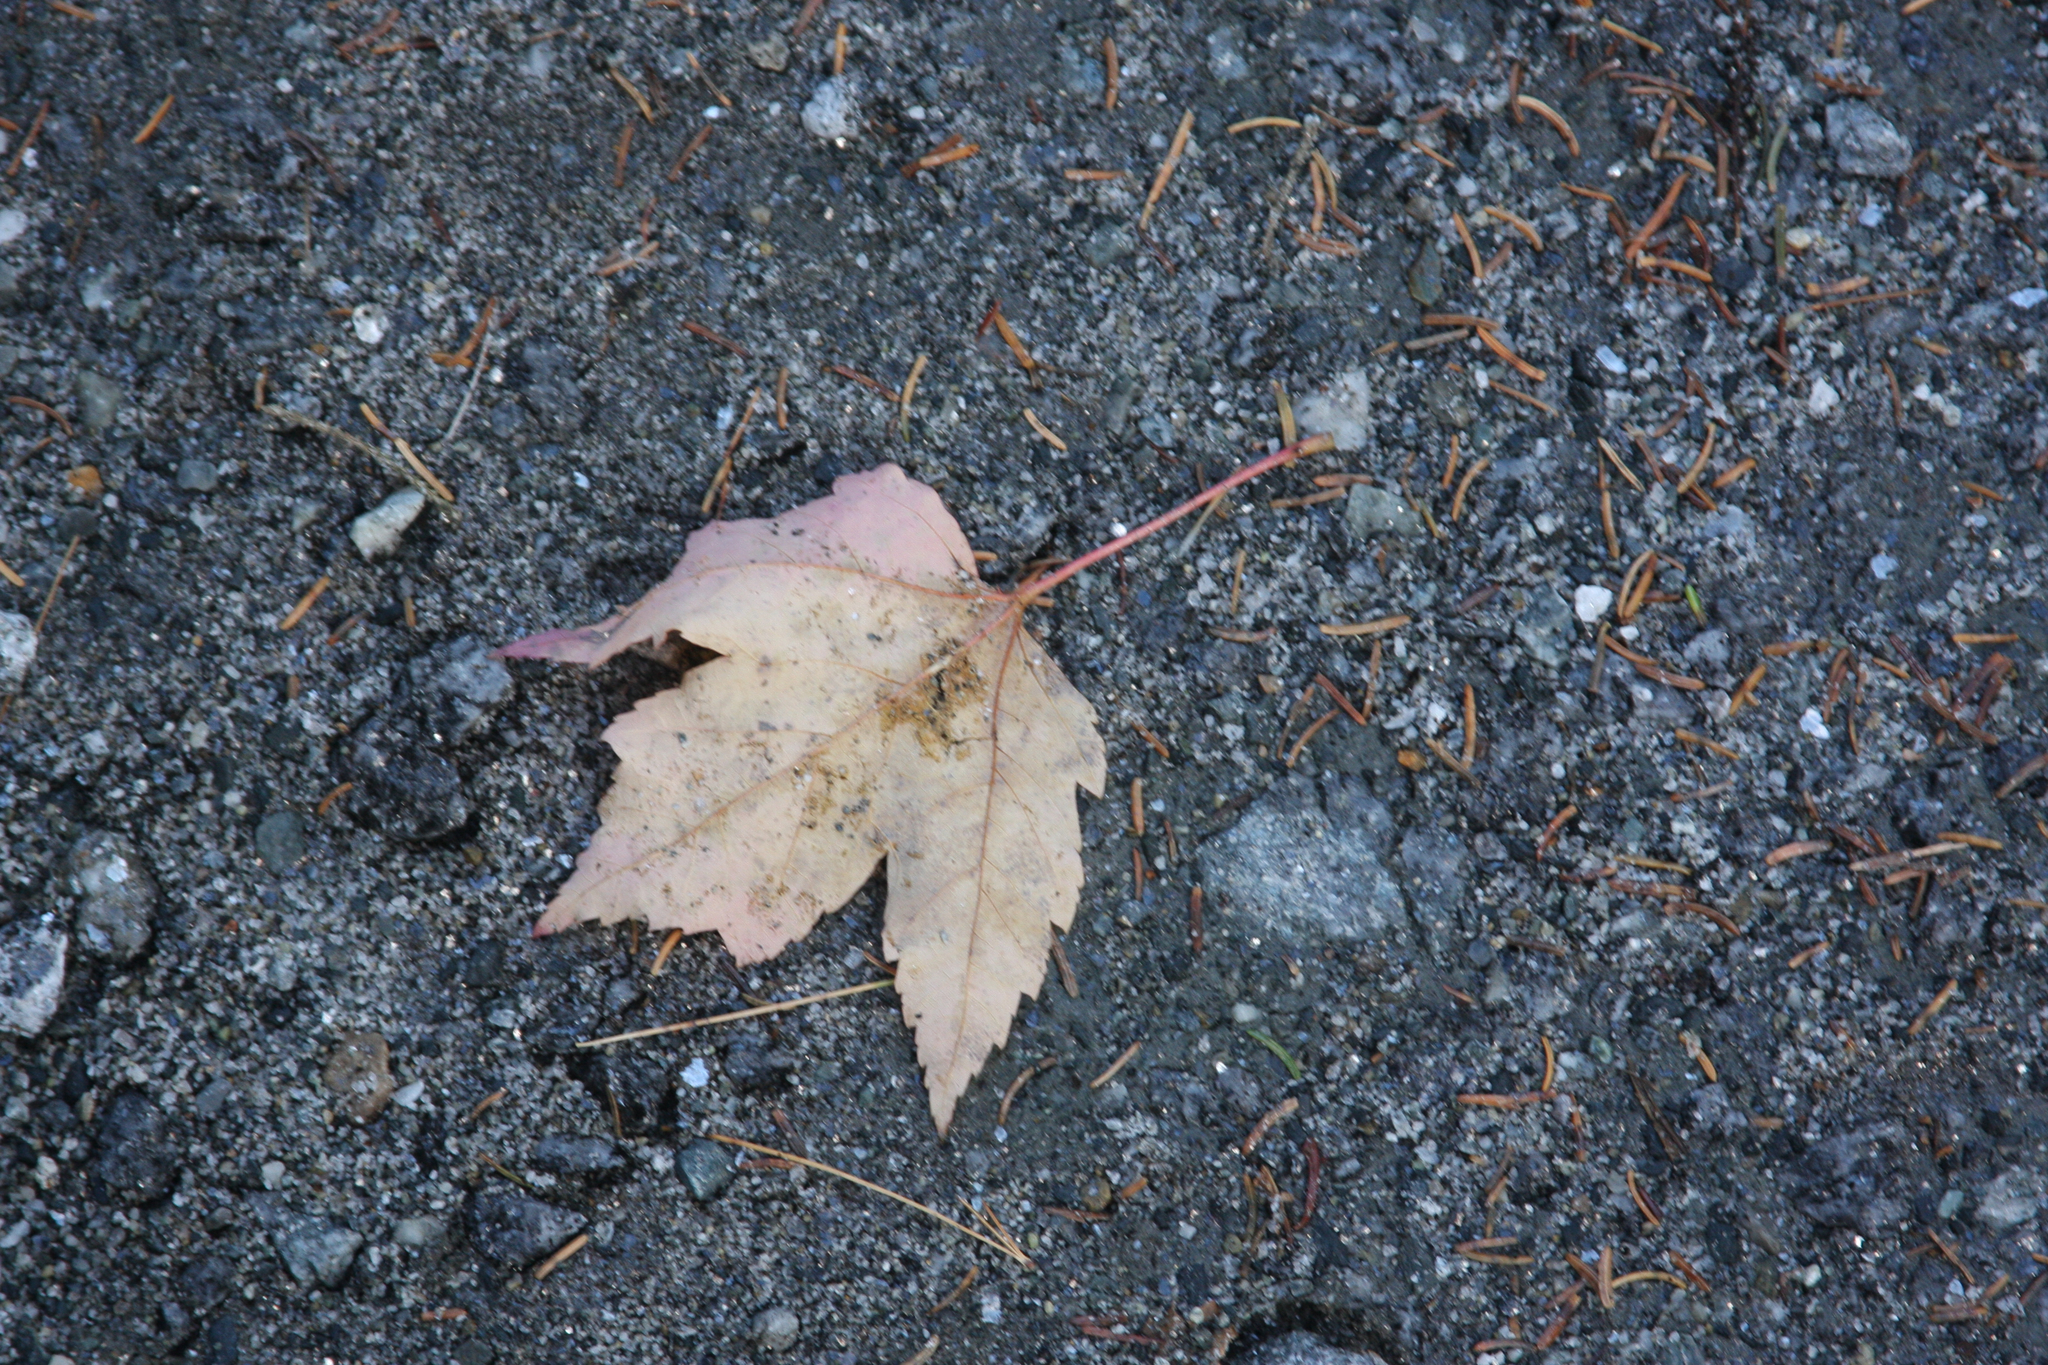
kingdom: Plantae
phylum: Tracheophyta
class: Magnoliopsida
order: Sapindales
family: Sapindaceae
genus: Acer
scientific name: Acer rubrum
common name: Red maple
